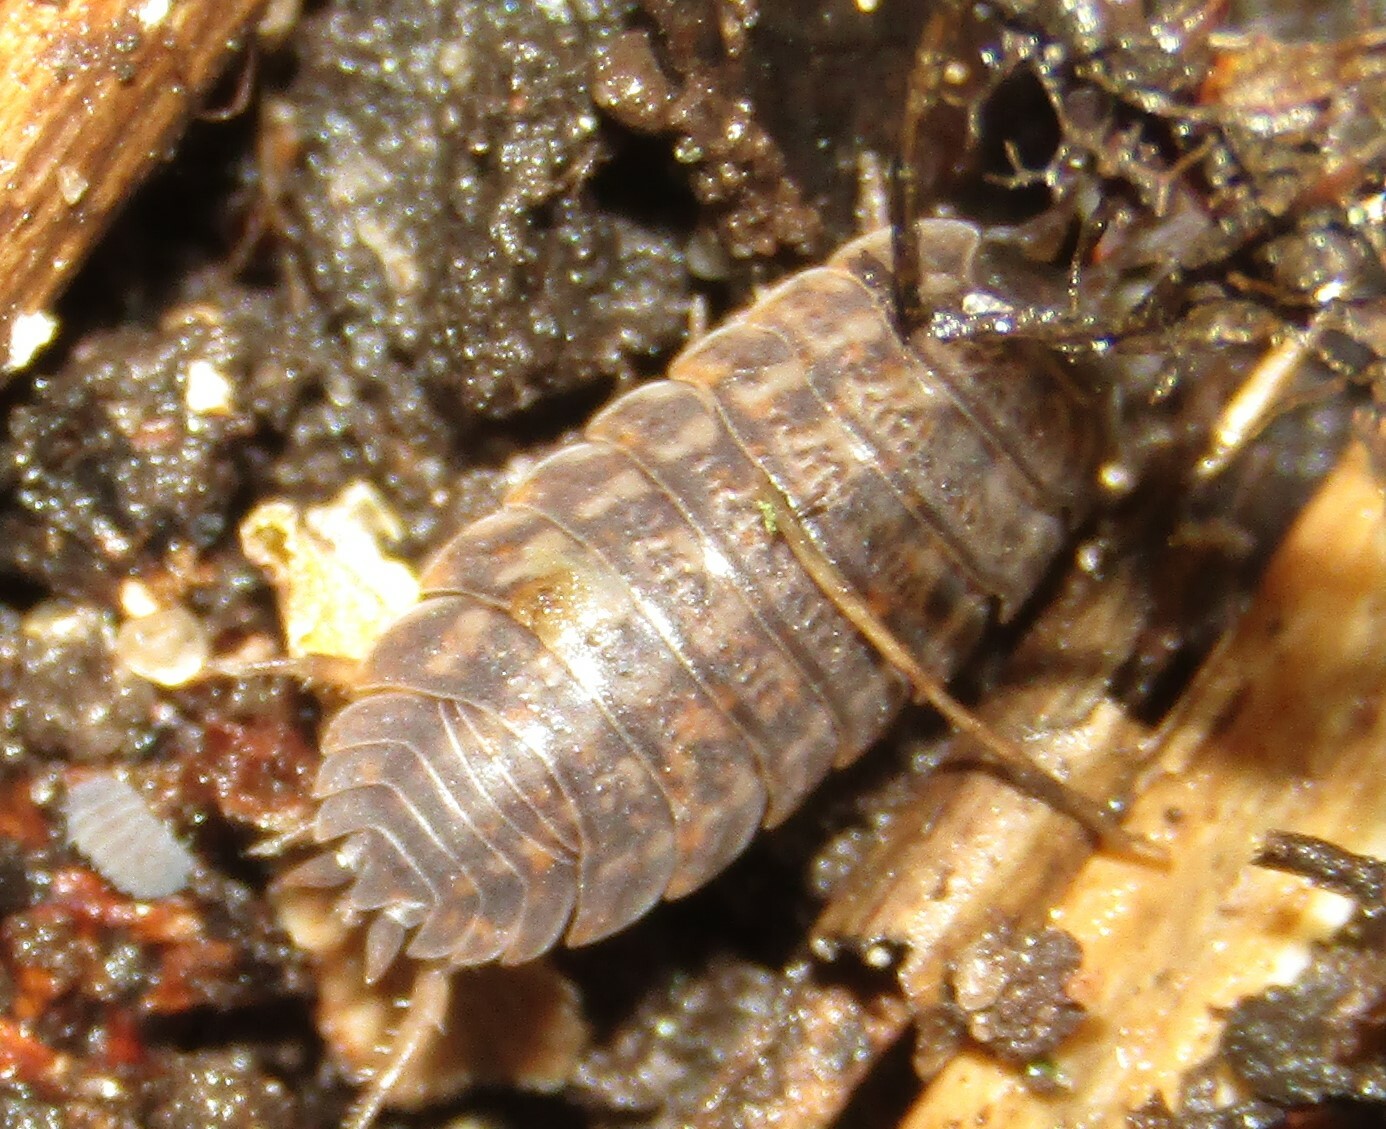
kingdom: Animalia
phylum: Arthropoda
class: Malacostraca
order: Isopoda
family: Trachelipodidae
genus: Trachelipus
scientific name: Trachelipus rathkii
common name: Isopod
